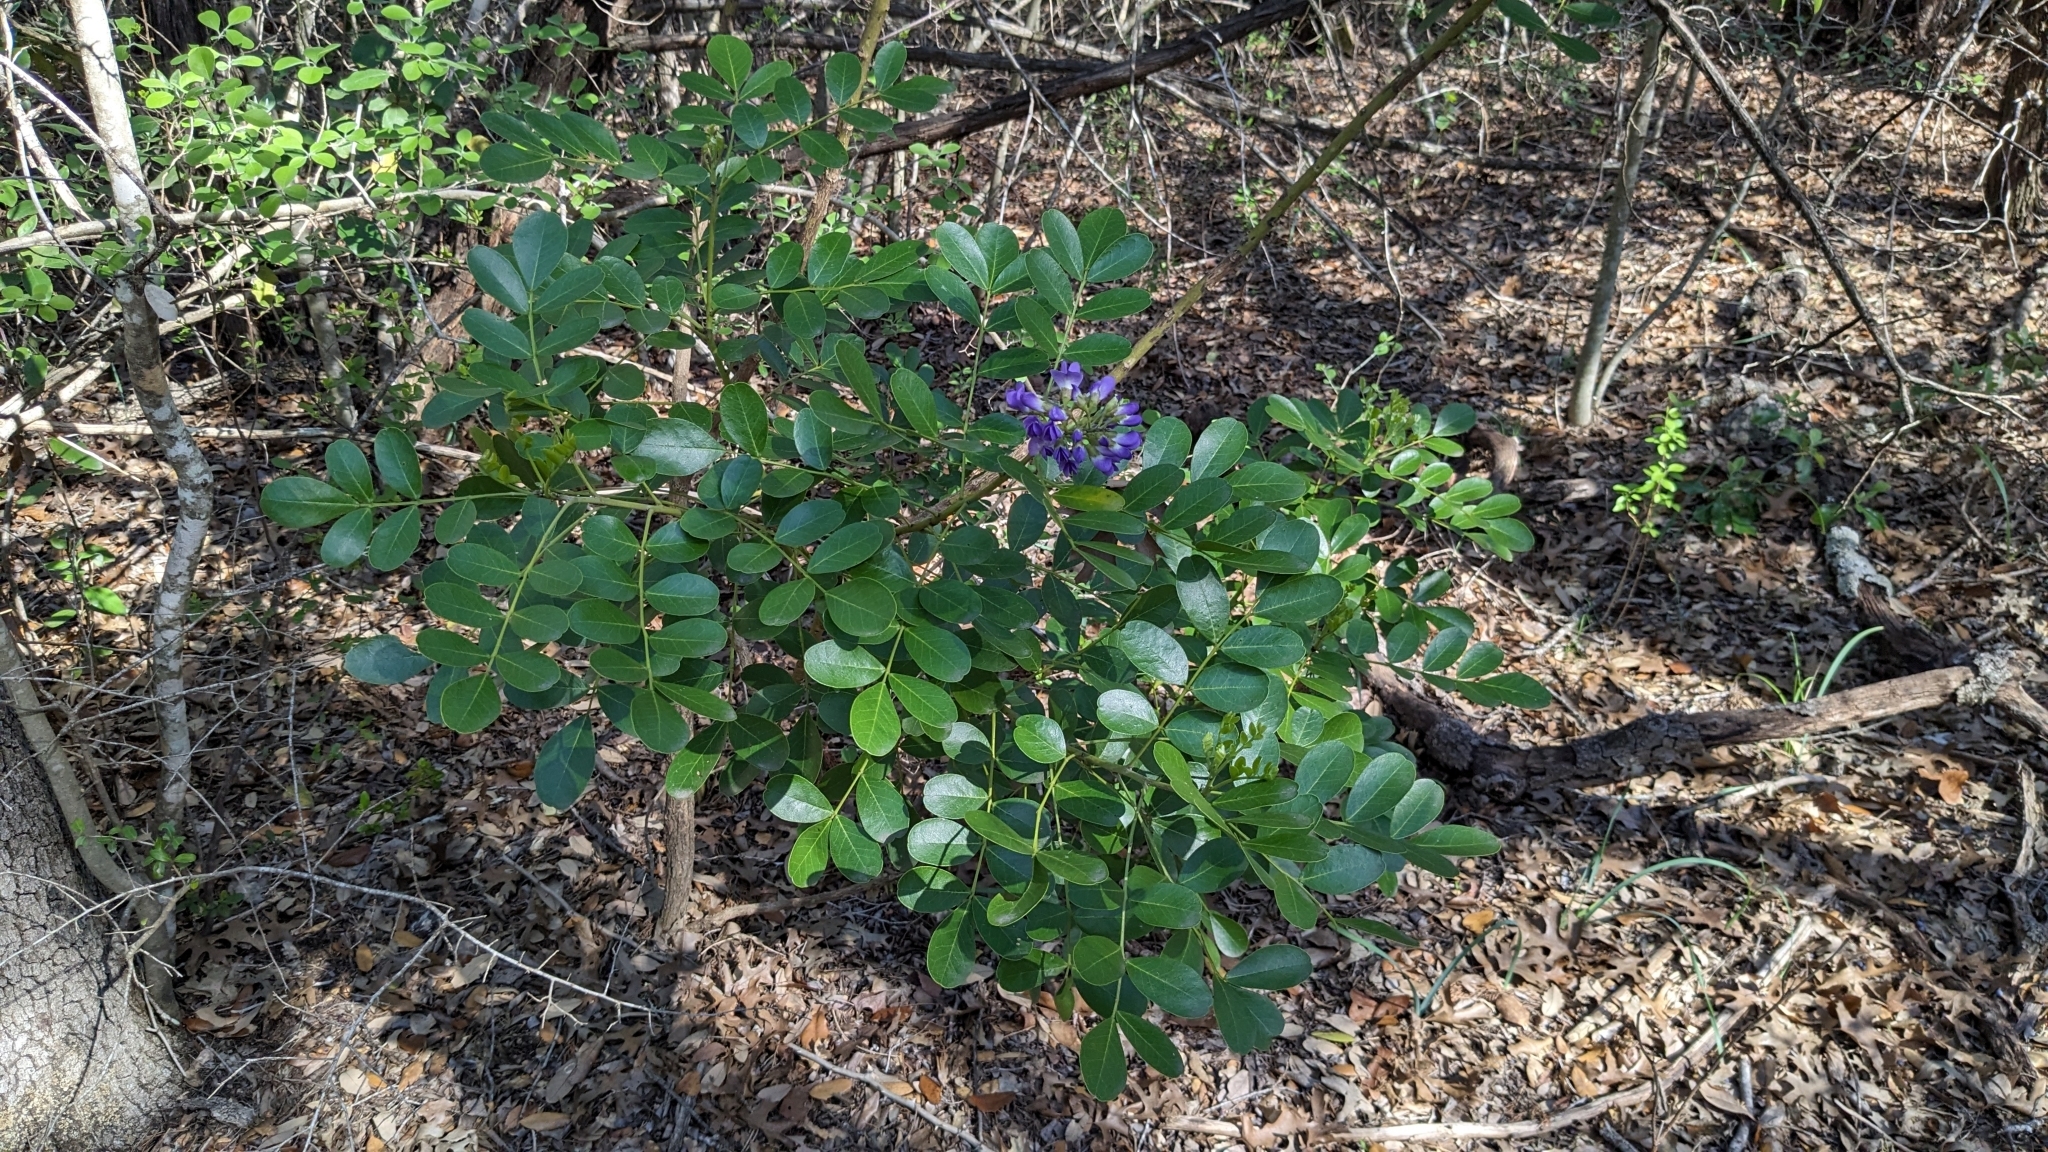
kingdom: Plantae
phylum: Tracheophyta
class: Magnoliopsida
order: Fabales
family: Fabaceae
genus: Dermatophyllum
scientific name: Dermatophyllum secundiflorum
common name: Texas-mountain-laurel
